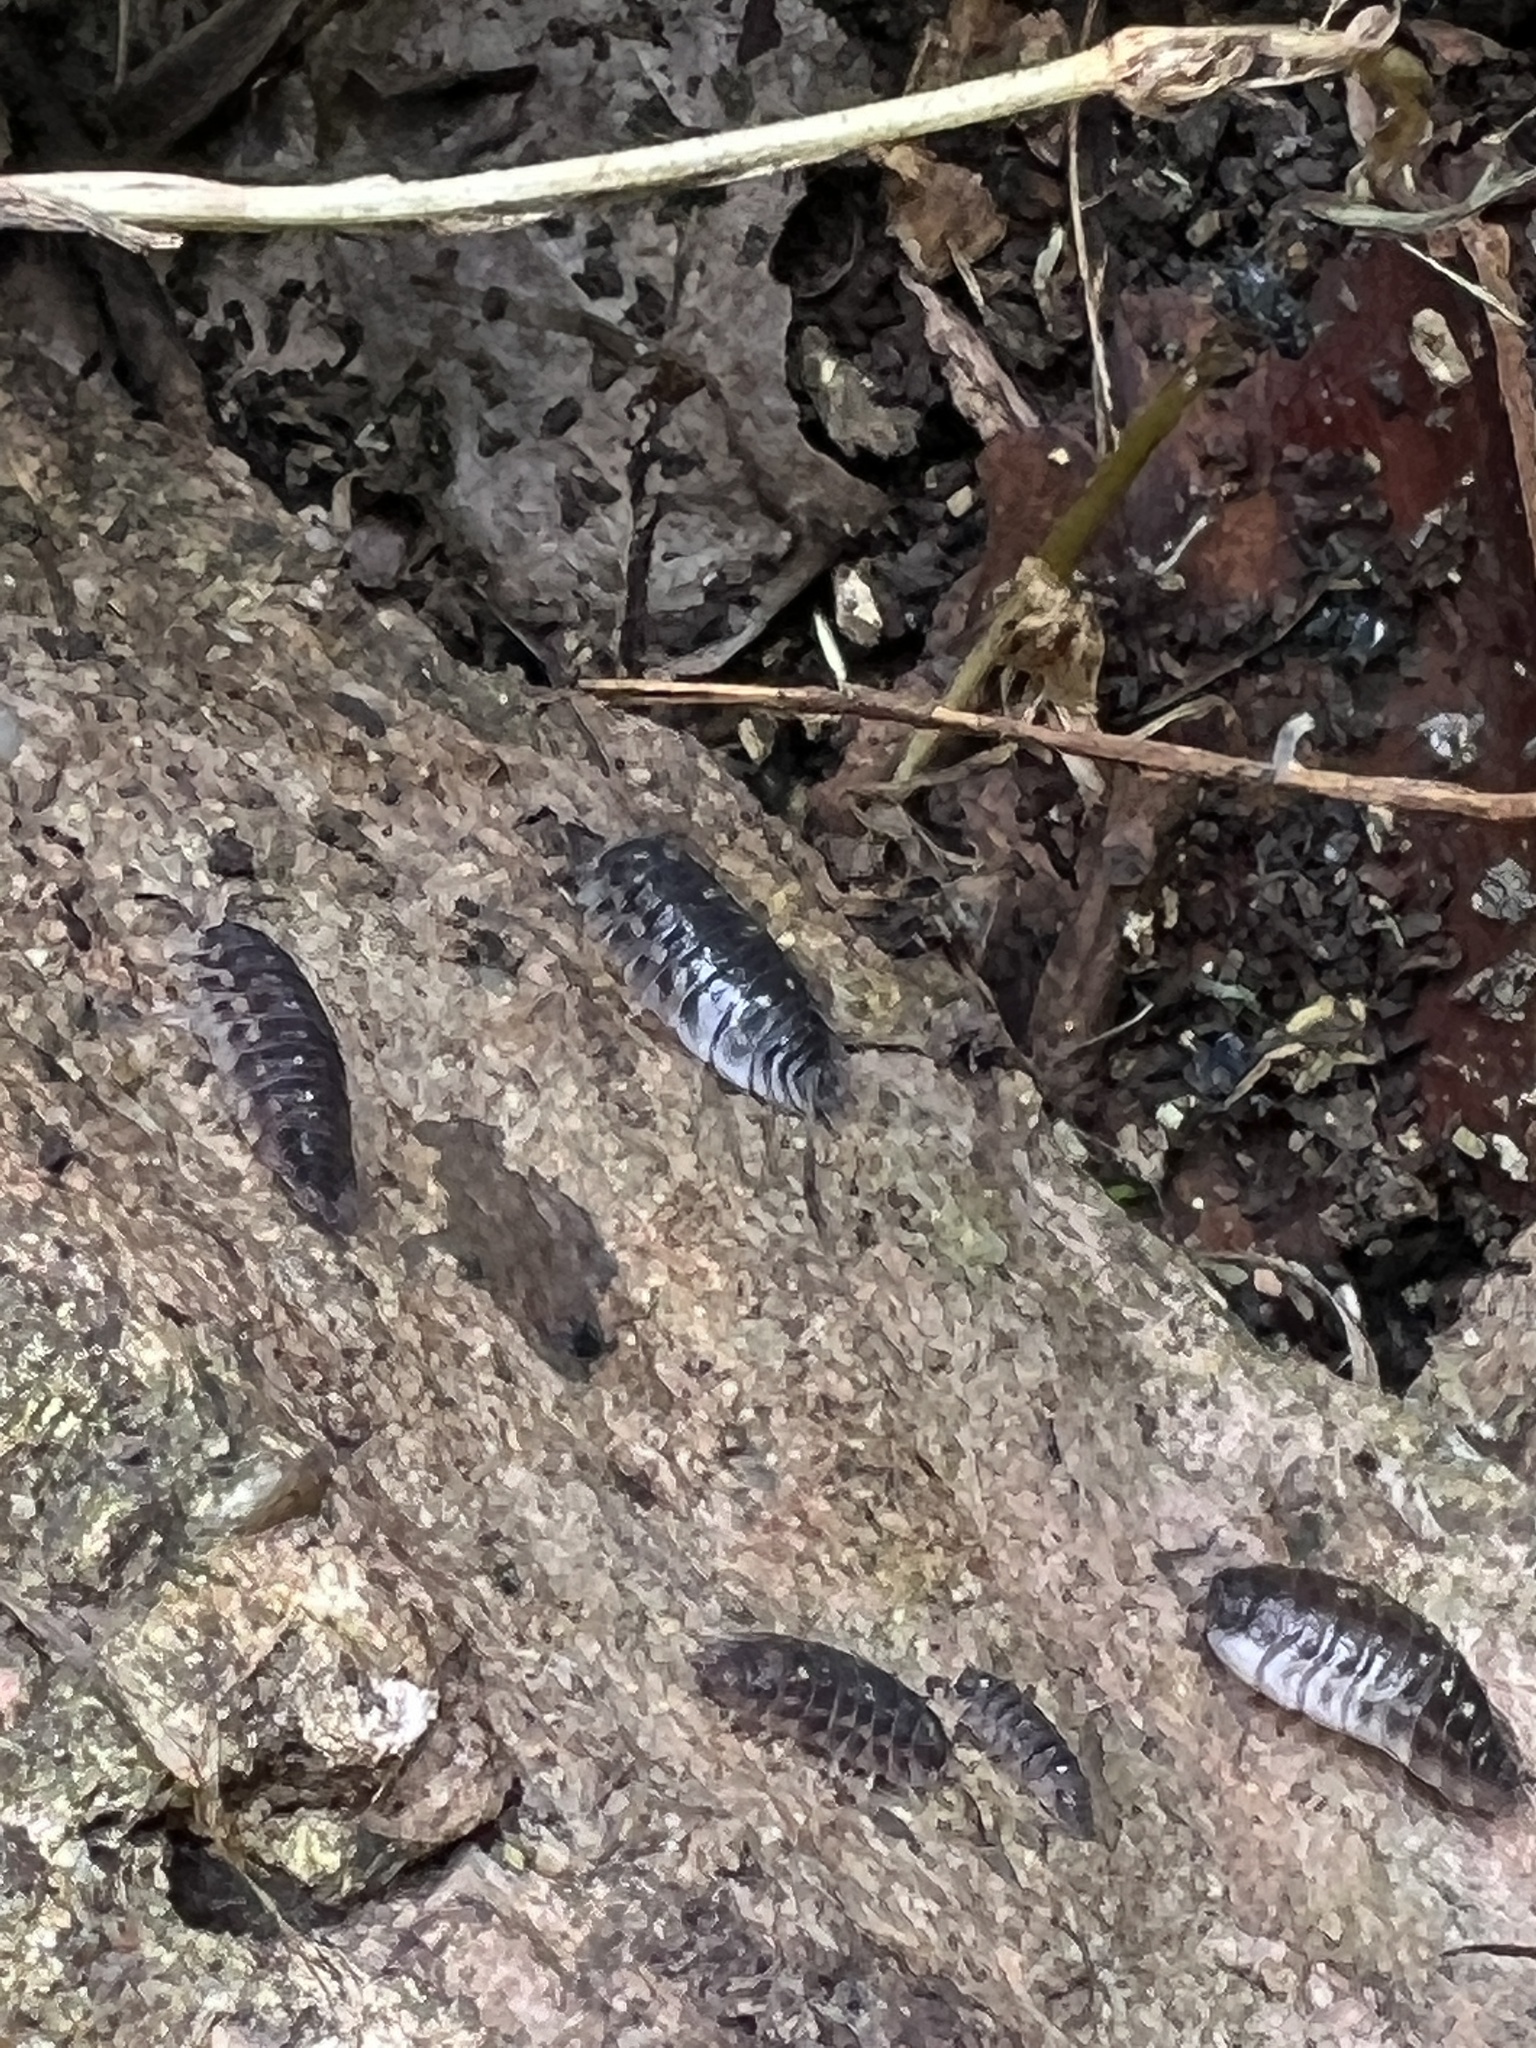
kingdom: Animalia
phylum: Arthropoda
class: Malacostraca
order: Isopoda
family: Oniscidae
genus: Oniscus
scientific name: Oniscus asellus
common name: Common shiny woodlouse
